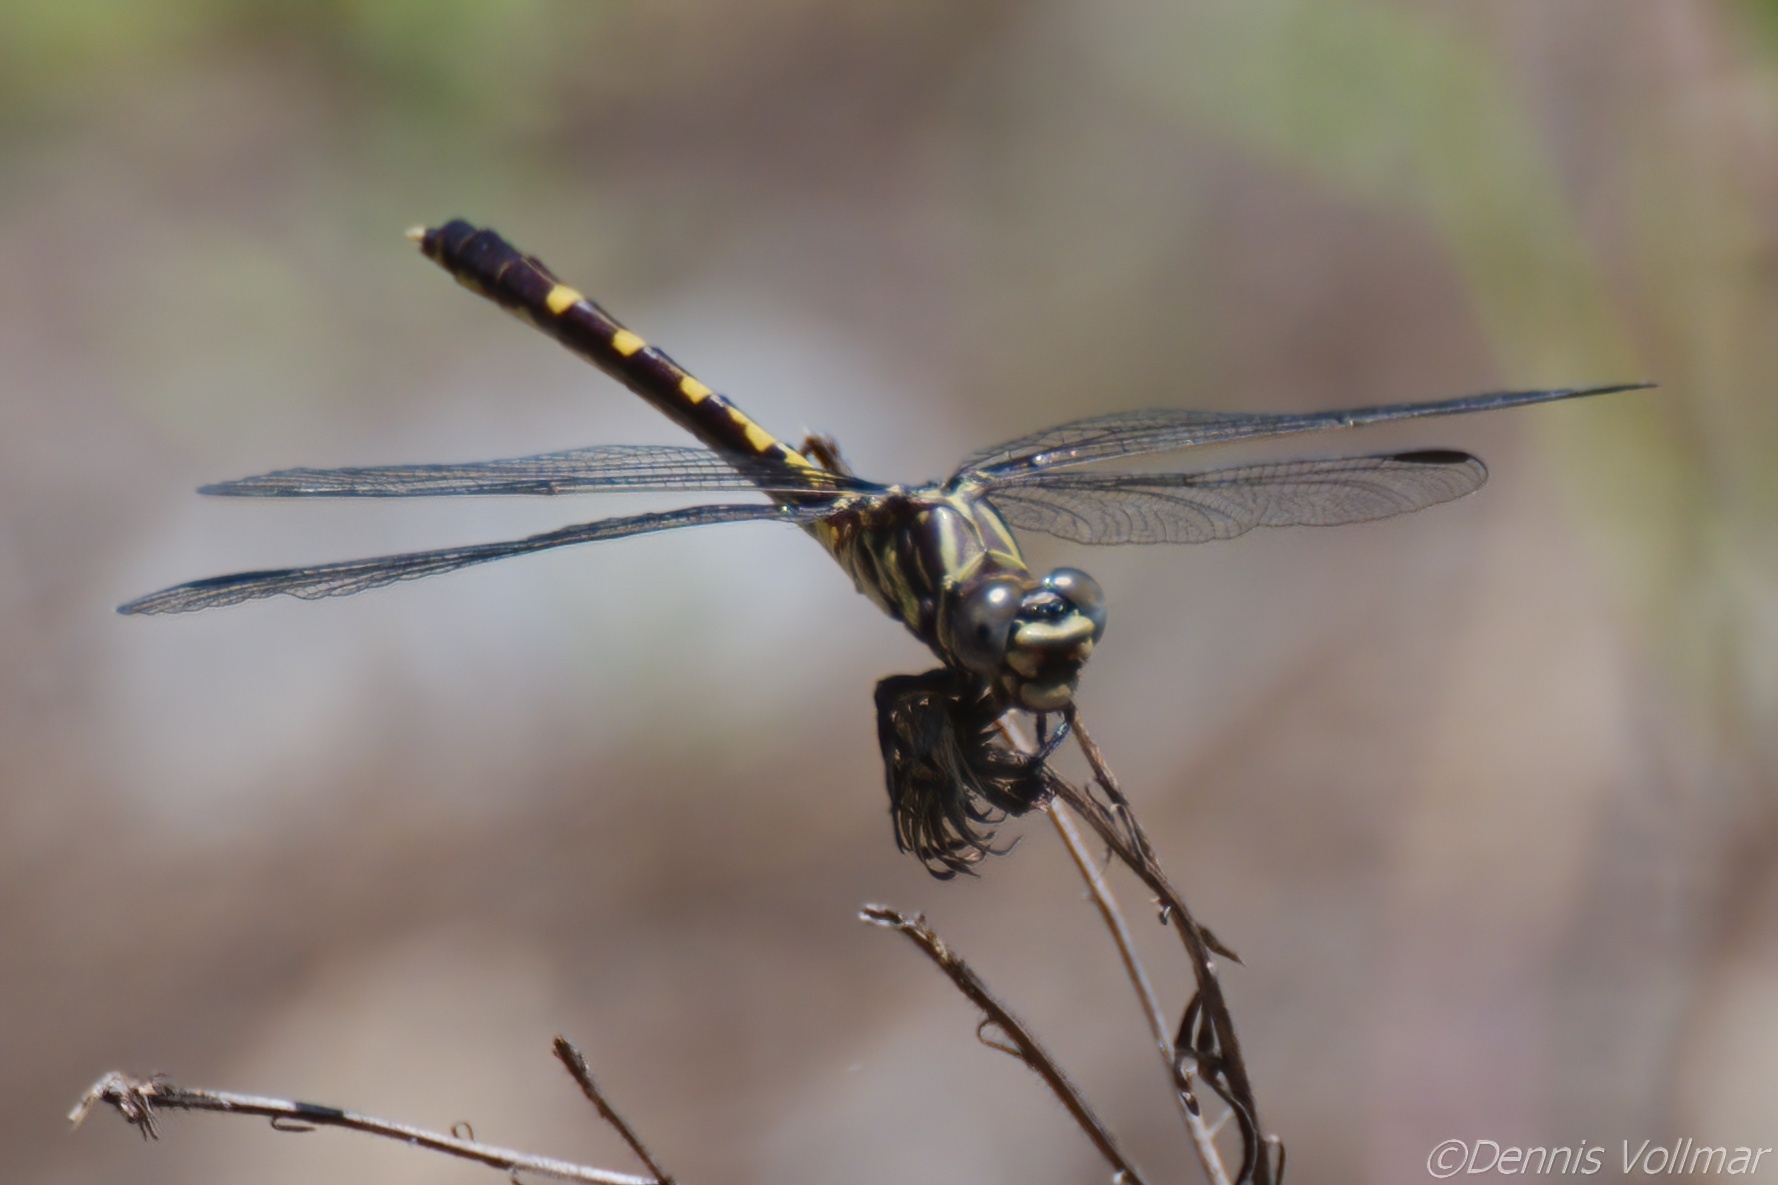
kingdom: Animalia
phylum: Arthropoda
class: Insecta
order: Odonata
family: Gomphidae
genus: Progomphus
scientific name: Progomphus obscurus
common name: Common sanddragon
